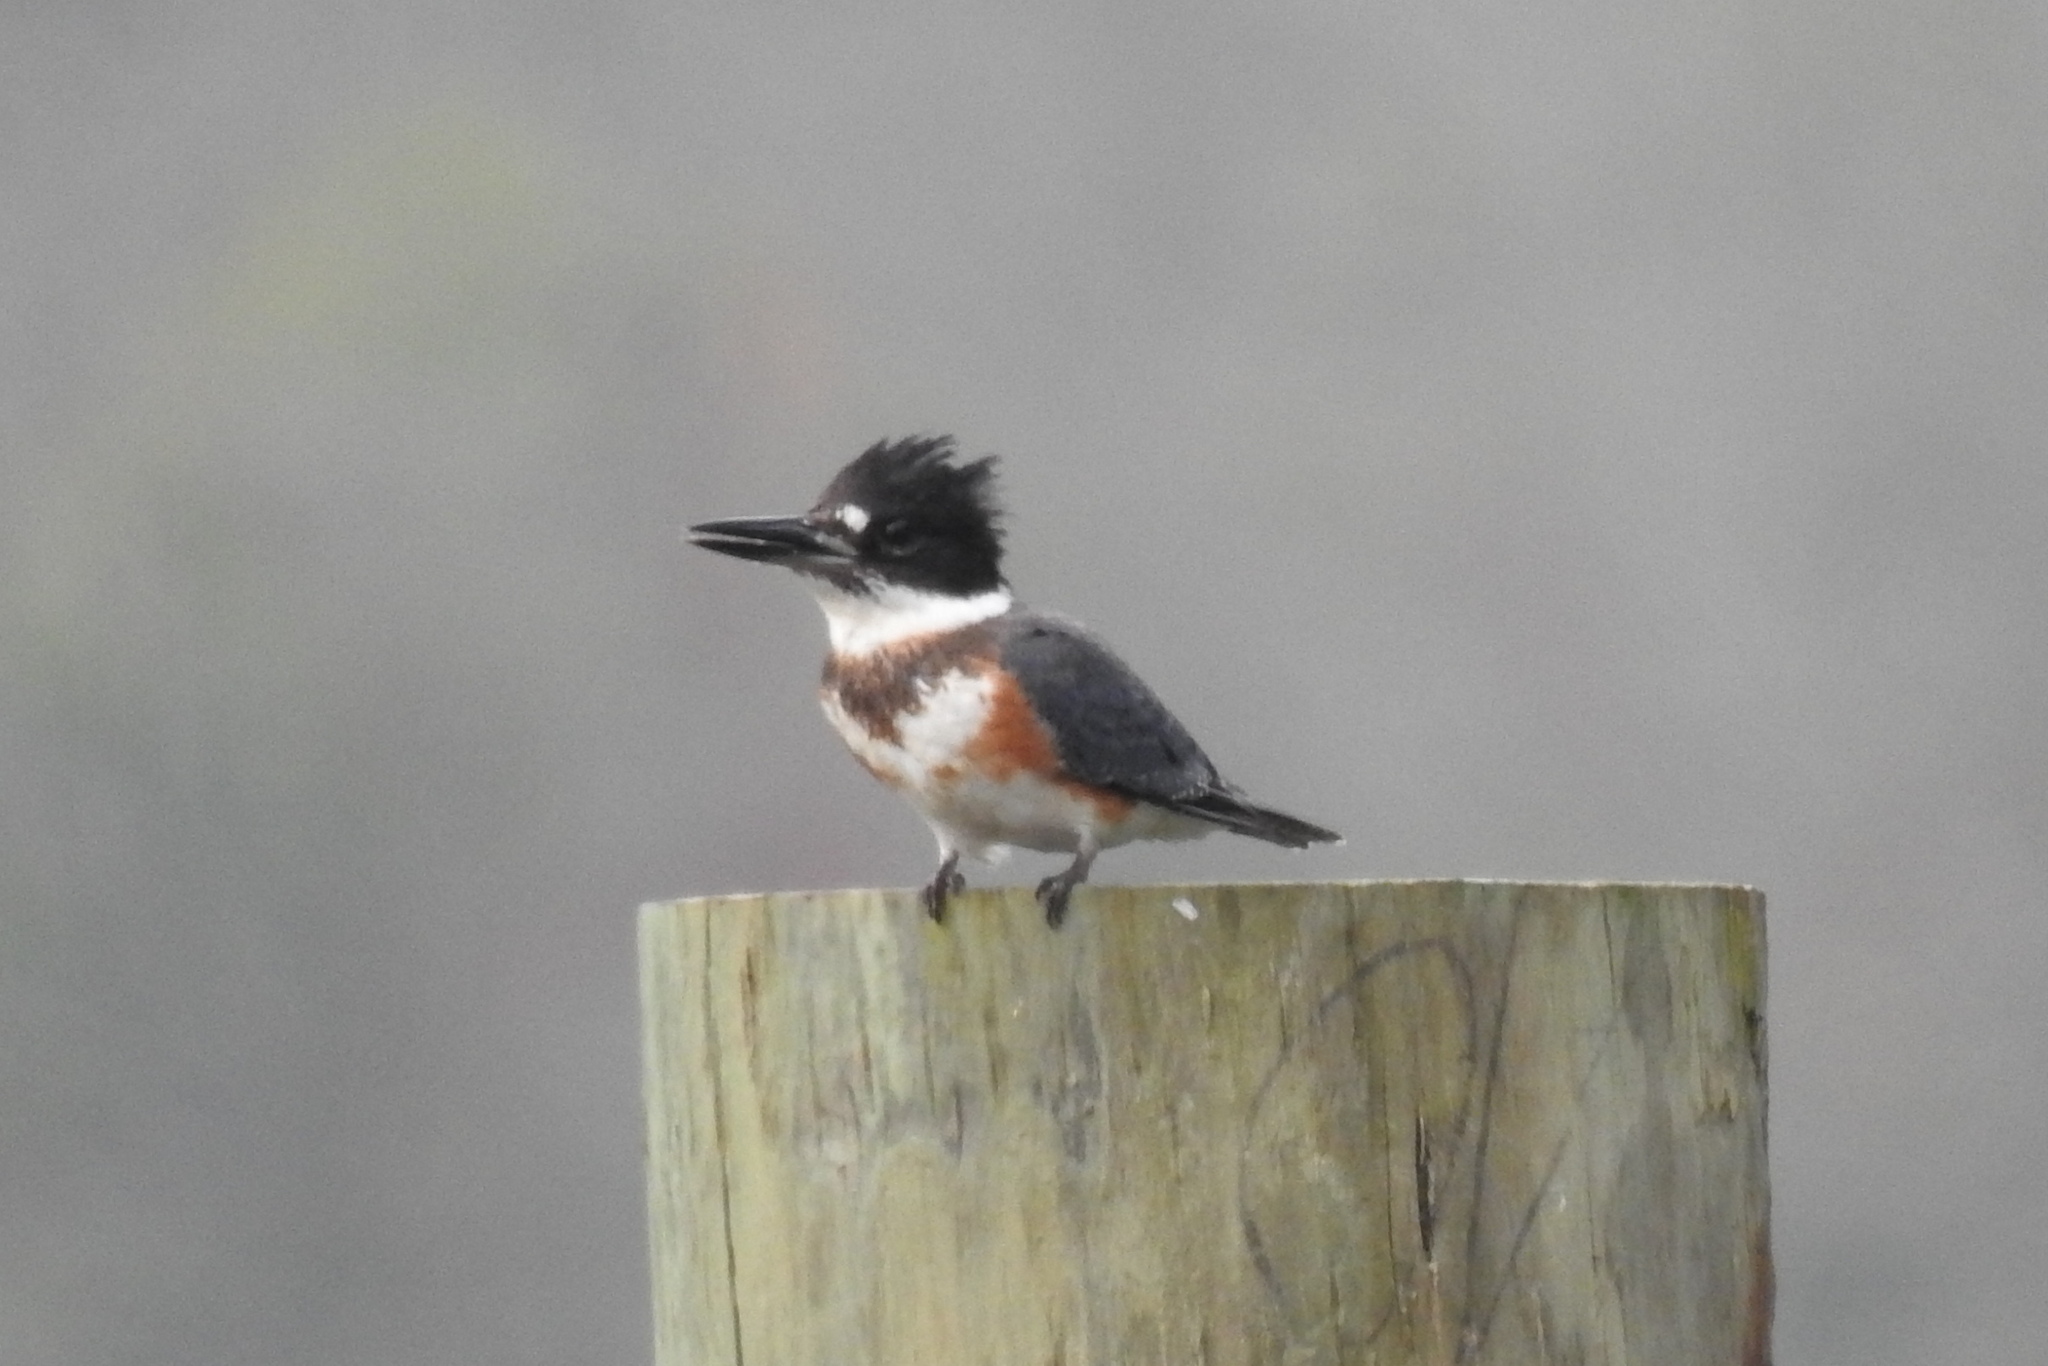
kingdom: Animalia
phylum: Chordata
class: Aves
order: Coraciiformes
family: Alcedinidae
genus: Megaceryle
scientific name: Megaceryle alcyon
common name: Belted kingfisher
